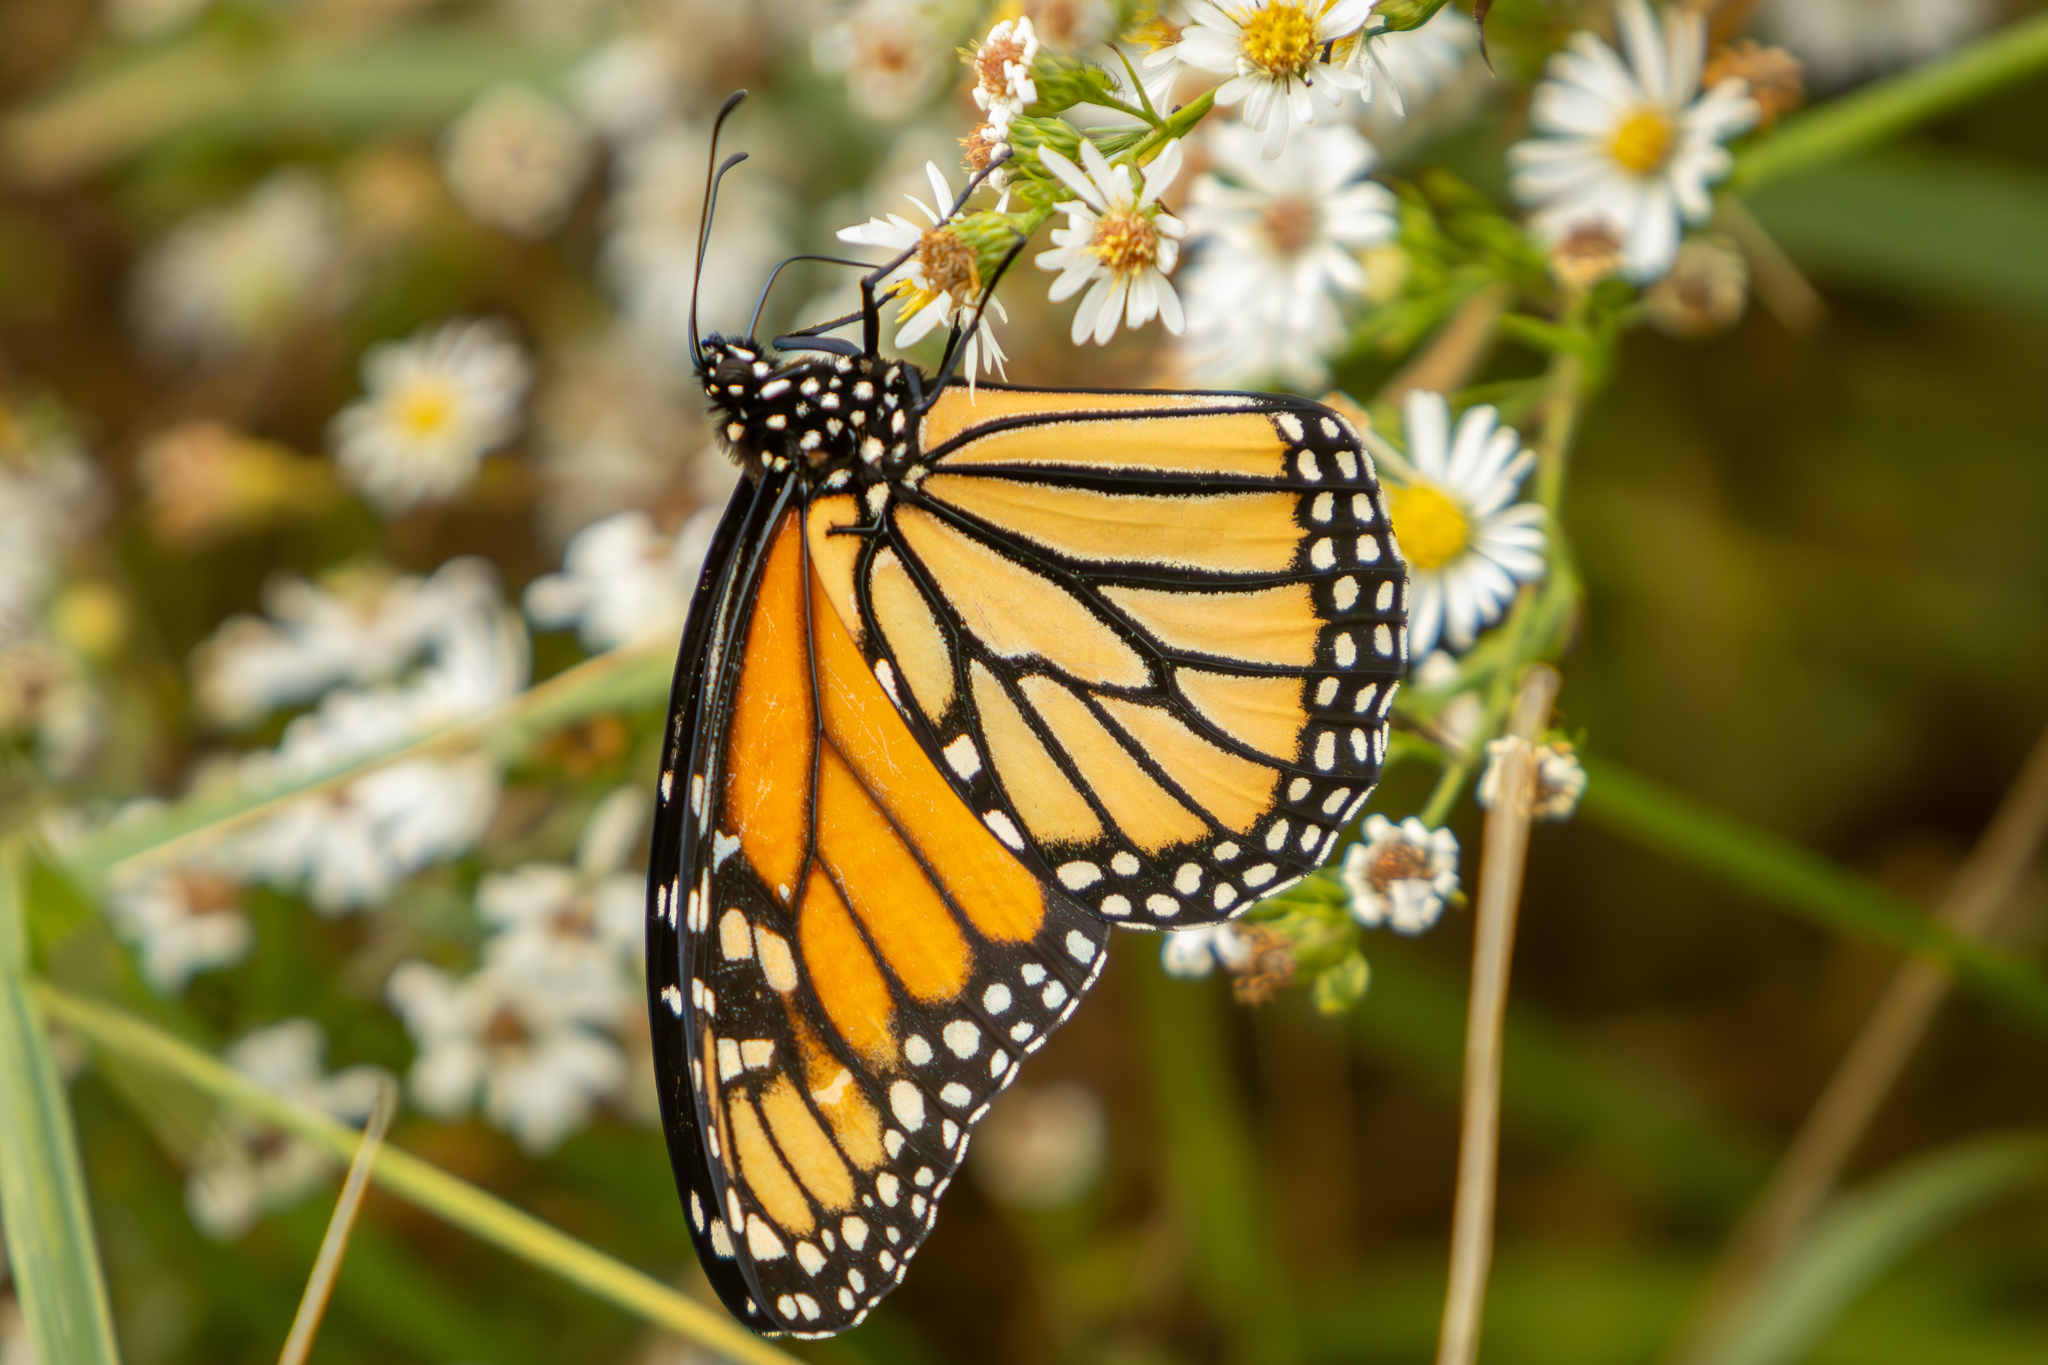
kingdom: Animalia
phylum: Arthropoda
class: Insecta
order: Lepidoptera
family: Nymphalidae
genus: Danaus
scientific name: Danaus plexippus
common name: Monarch
